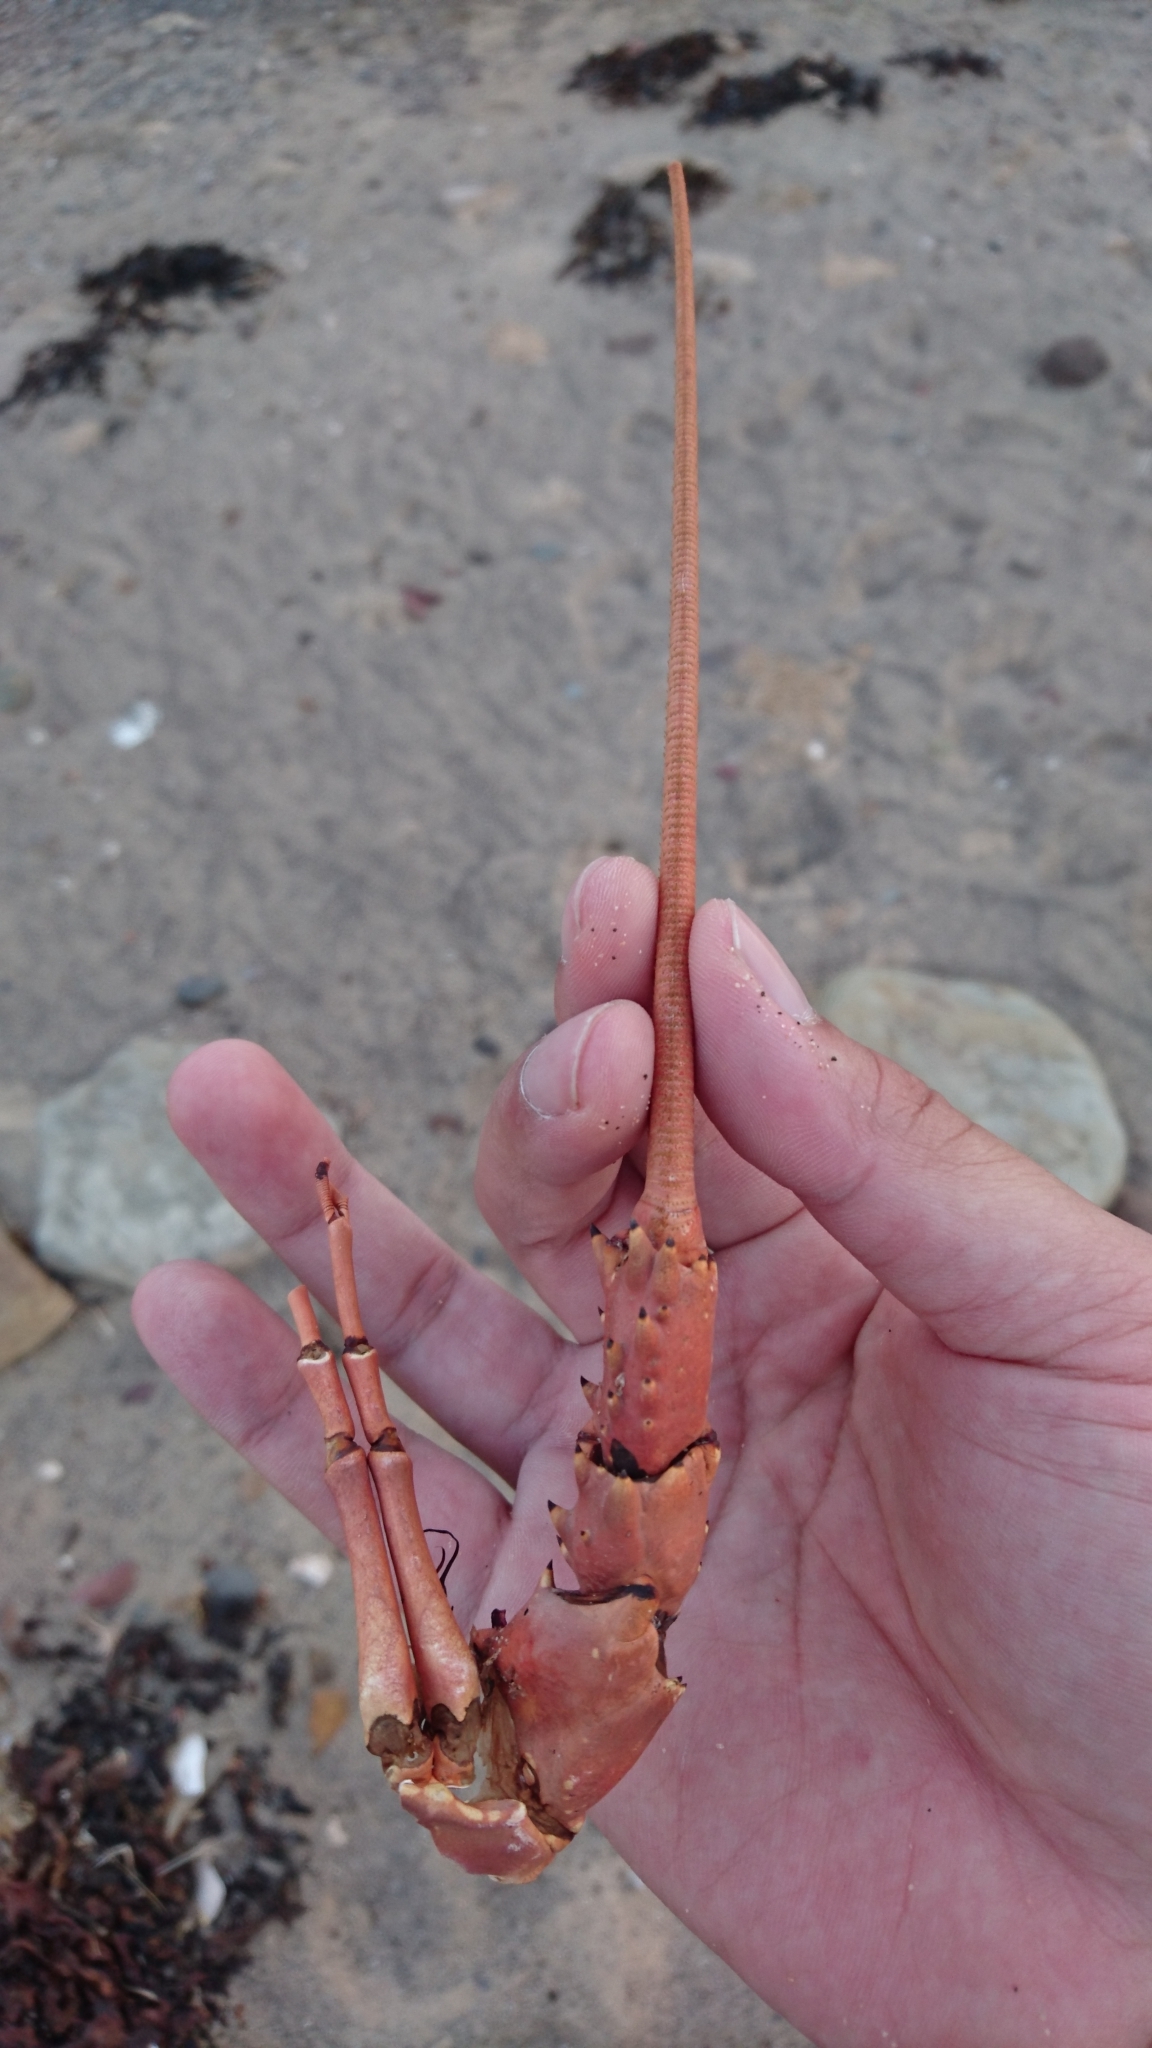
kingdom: Animalia
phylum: Arthropoda
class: Malacostraca
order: Decapoda
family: Palinuridae
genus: Sagmariasus
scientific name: Sagmariasus verreauxi
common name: Green rock lobster
